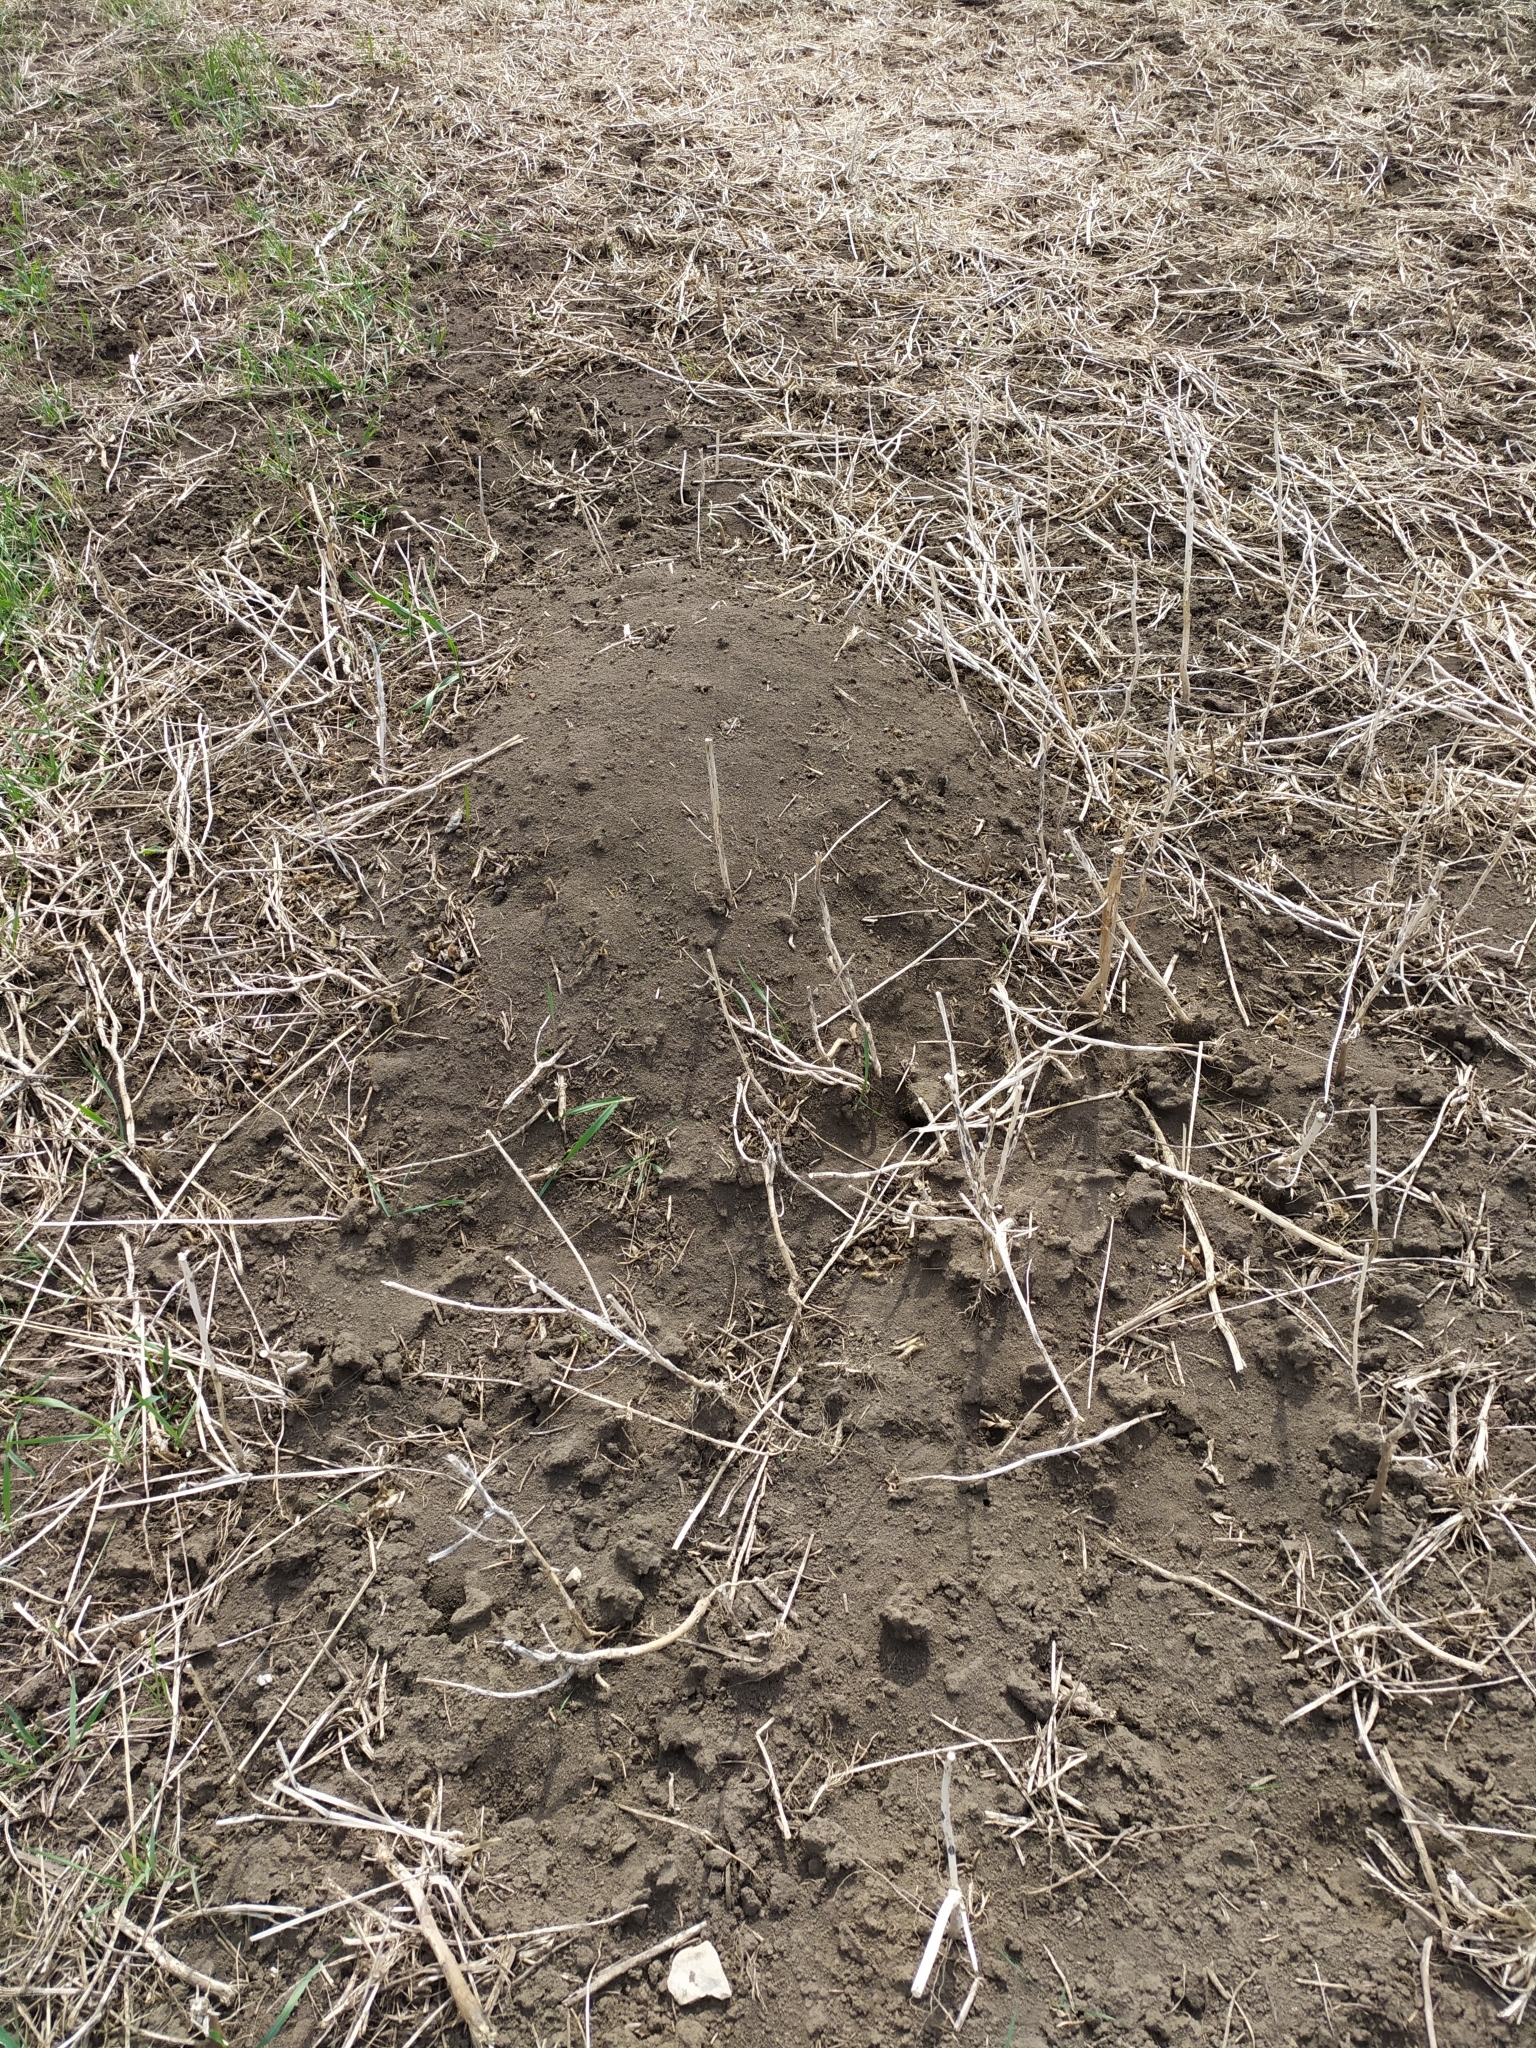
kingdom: Animalia
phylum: Chordata
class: Mammalia
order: Rodentia
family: Muridae
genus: Mus
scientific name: Mus spicilegus
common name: Mound-building mouse
